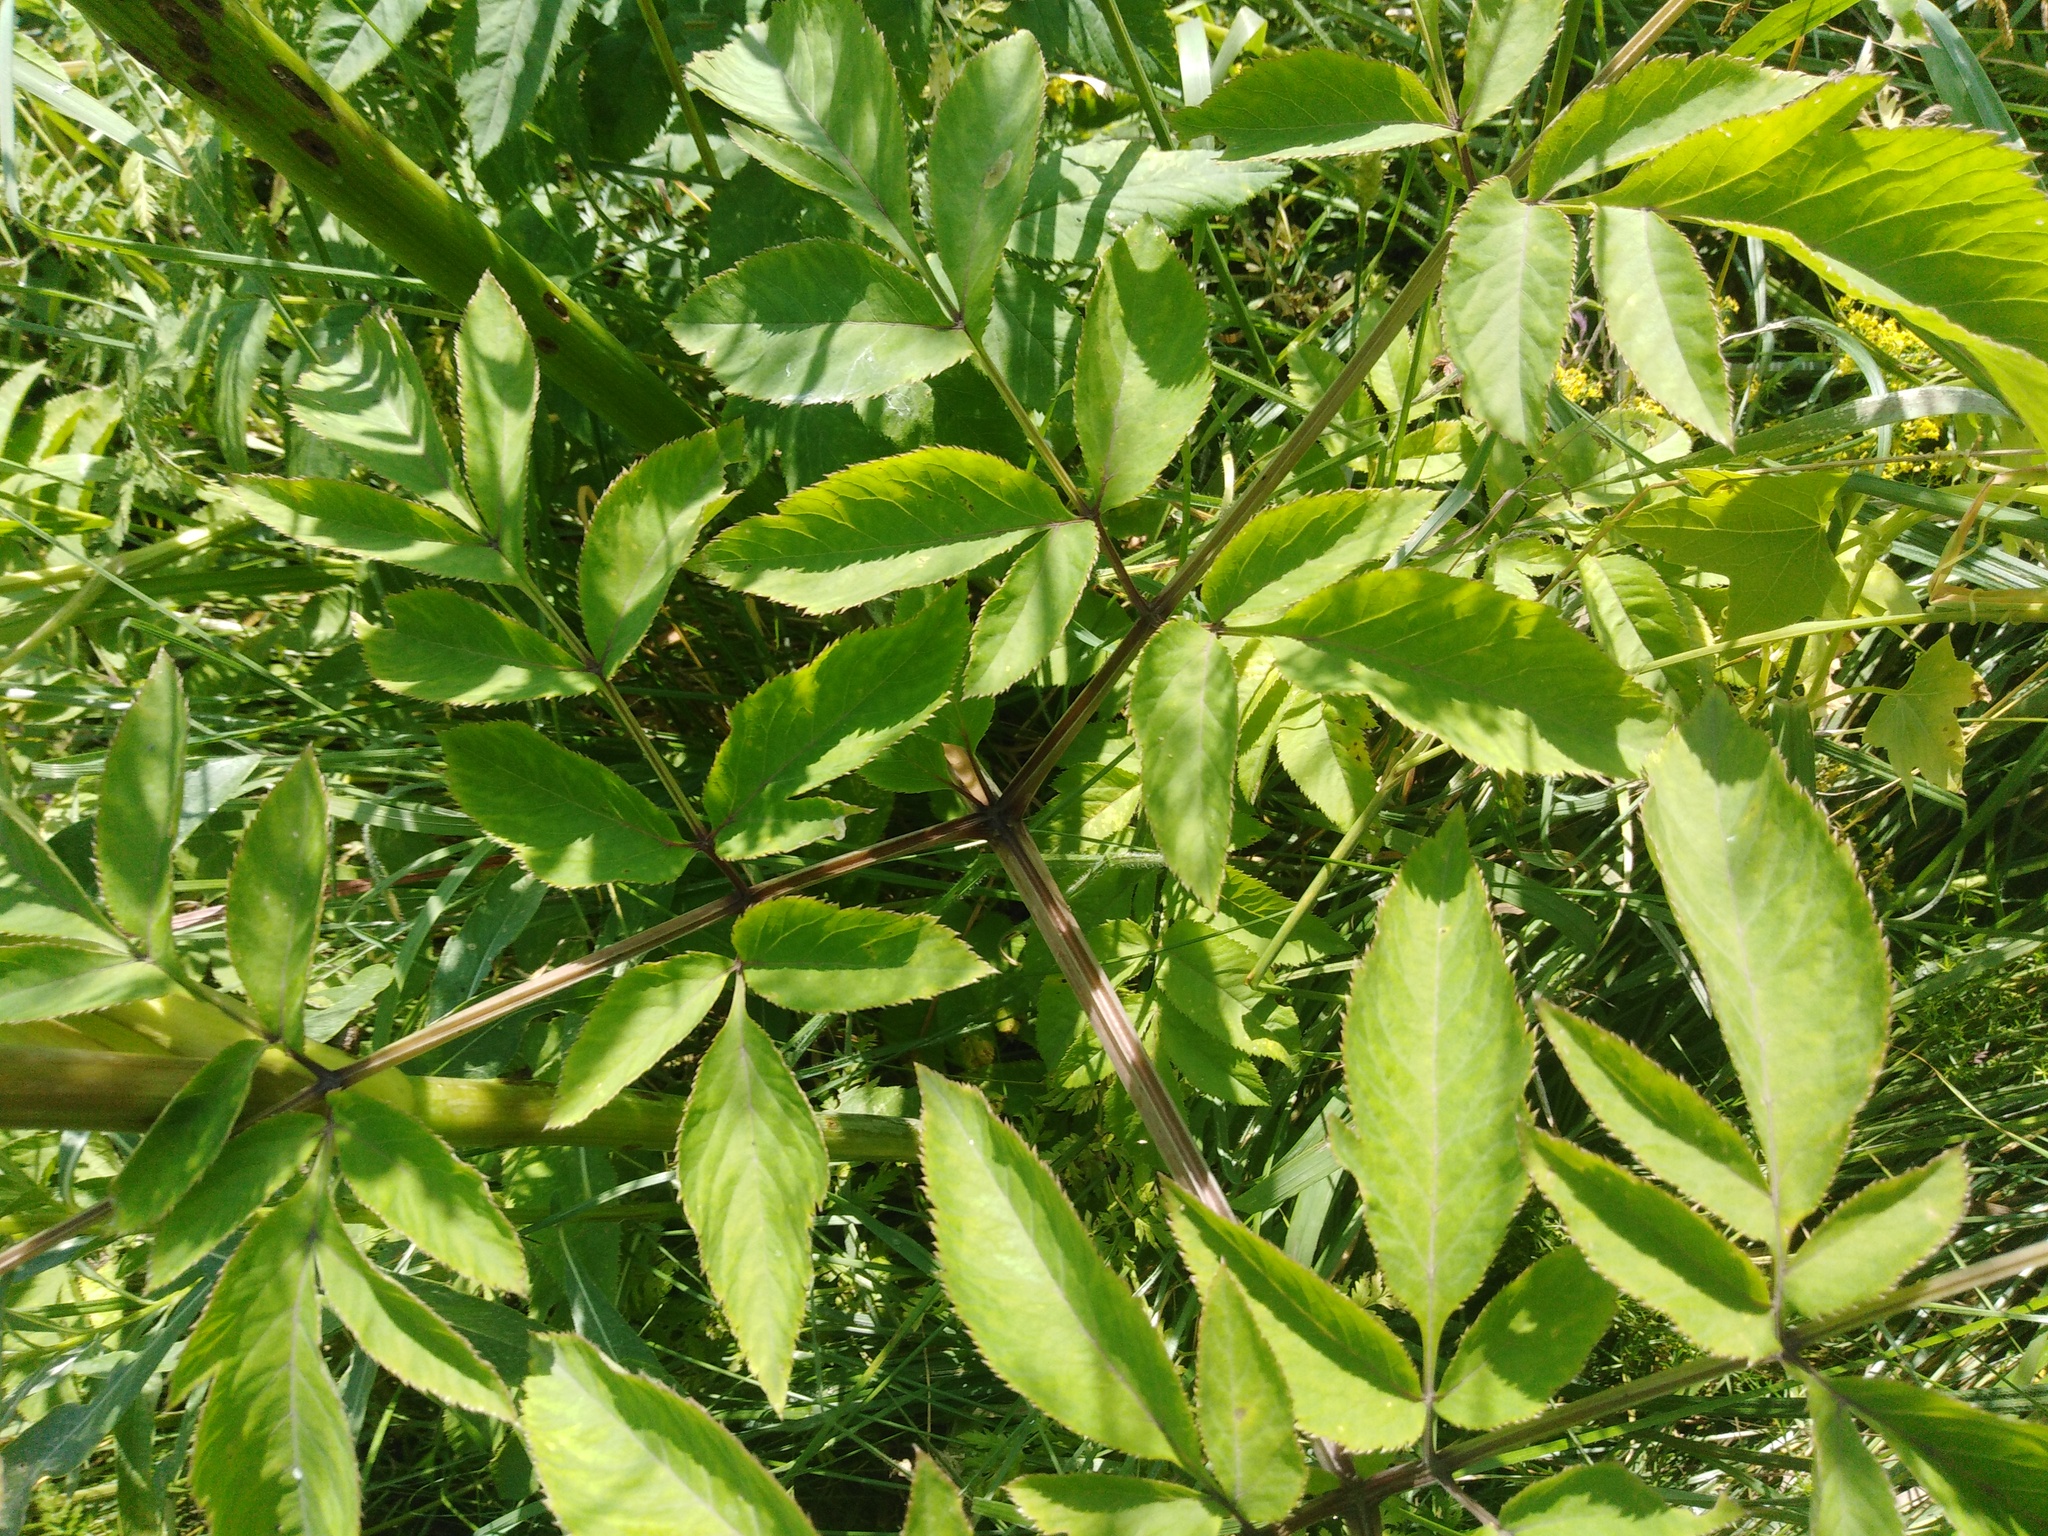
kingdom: Plantae
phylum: Tracheophyta
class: Magnoliopsida
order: Apiales
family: Apiaceae
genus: Angelica
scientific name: Angelica sylvestris
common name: Wild angelica
